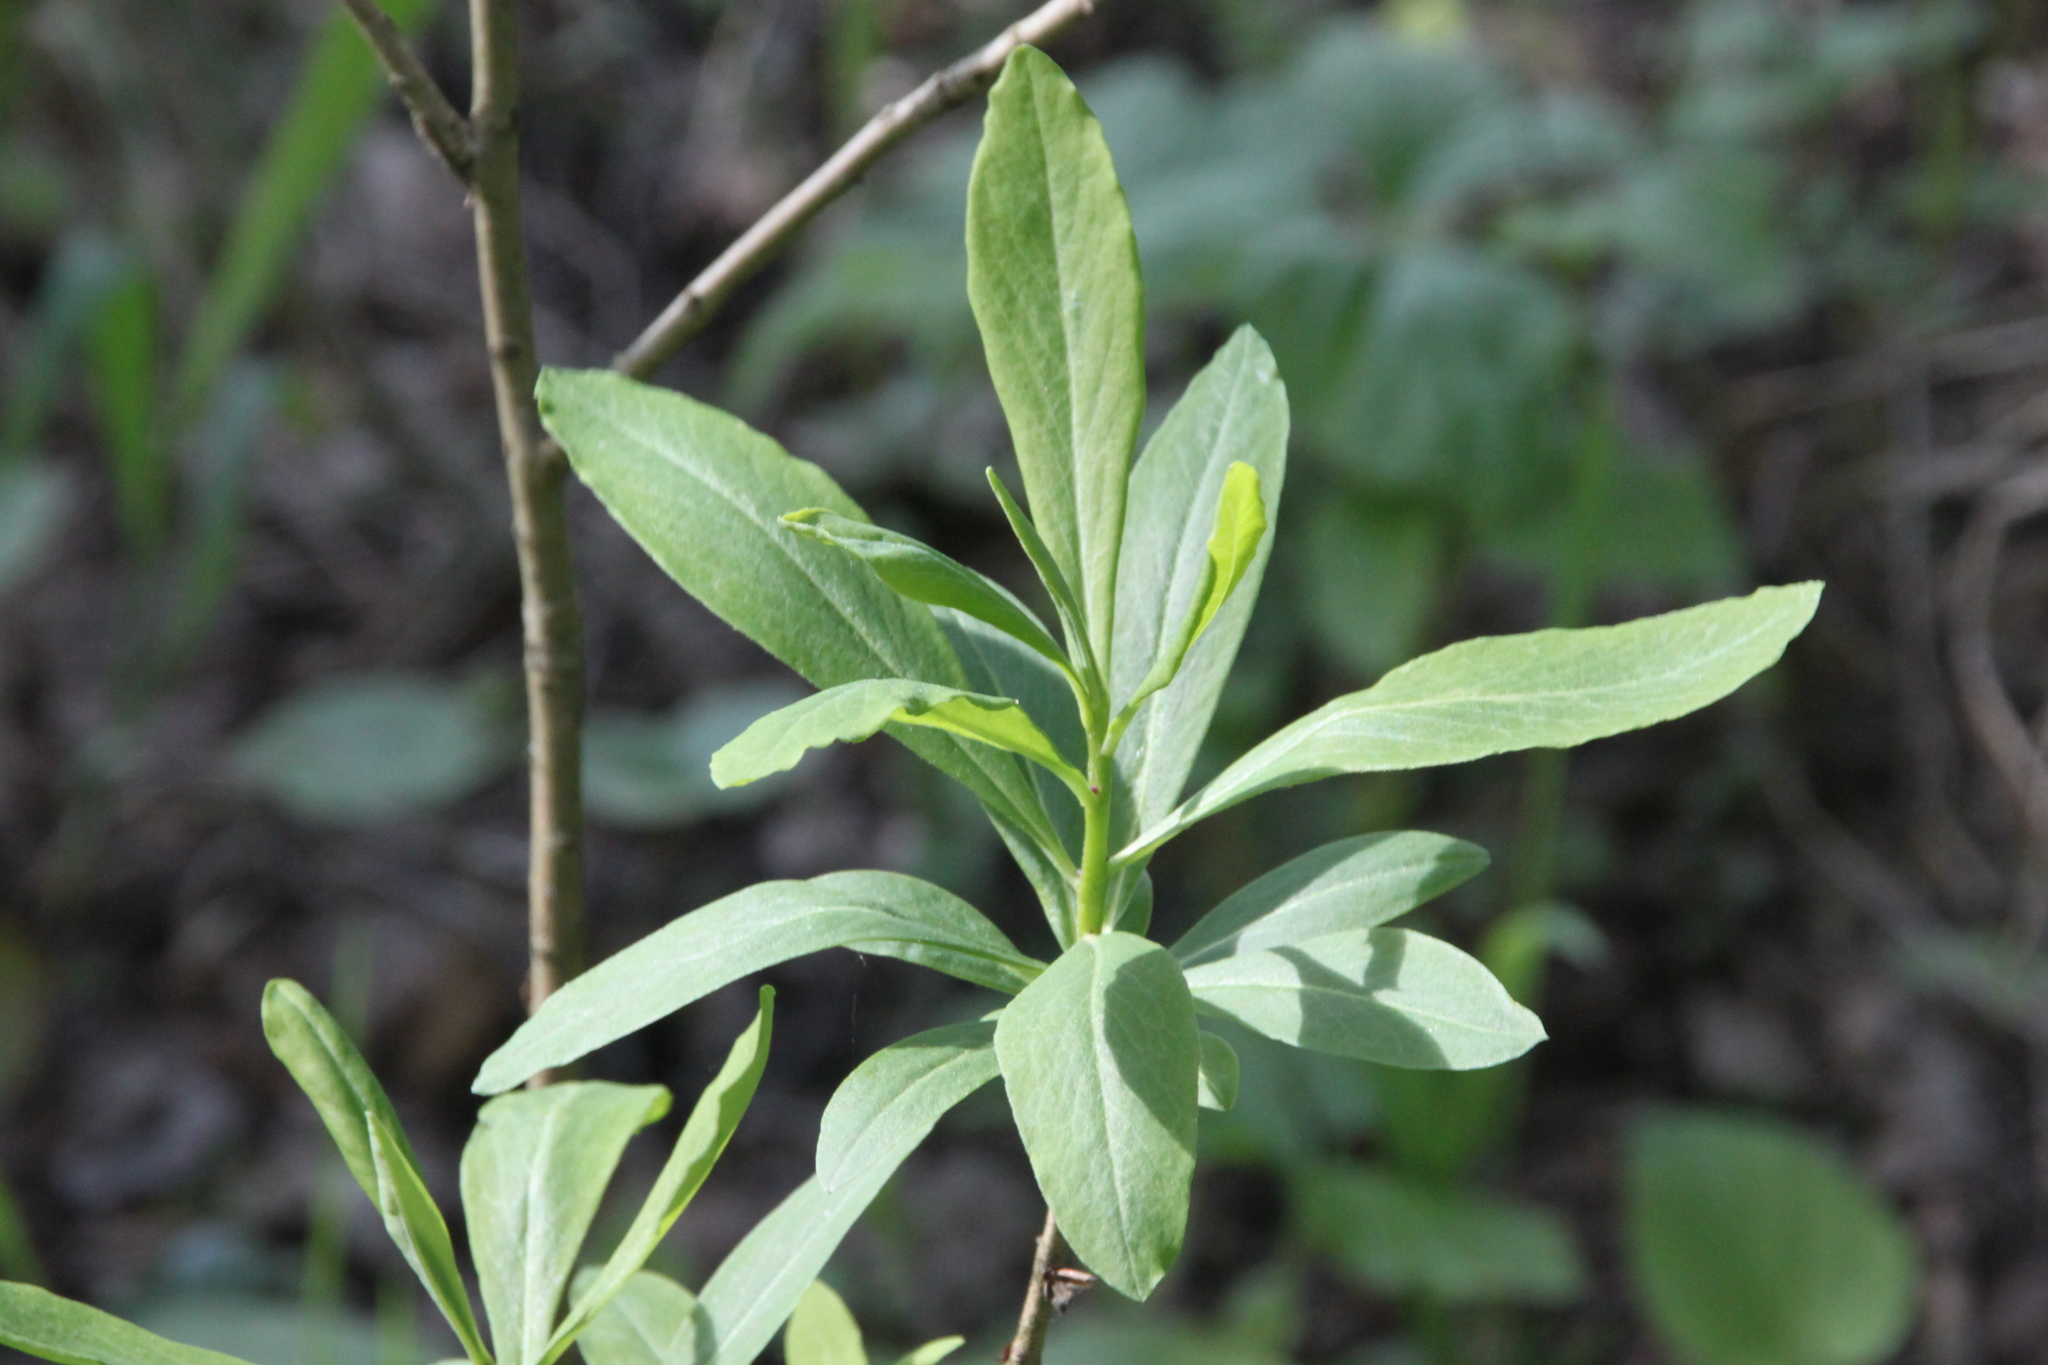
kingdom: Plantae
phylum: Tracheophyta
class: Magnoliopsida
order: Malvales
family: Thymelaeaceae
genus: Daphne
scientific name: Daphne mezereum
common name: Mezereon
